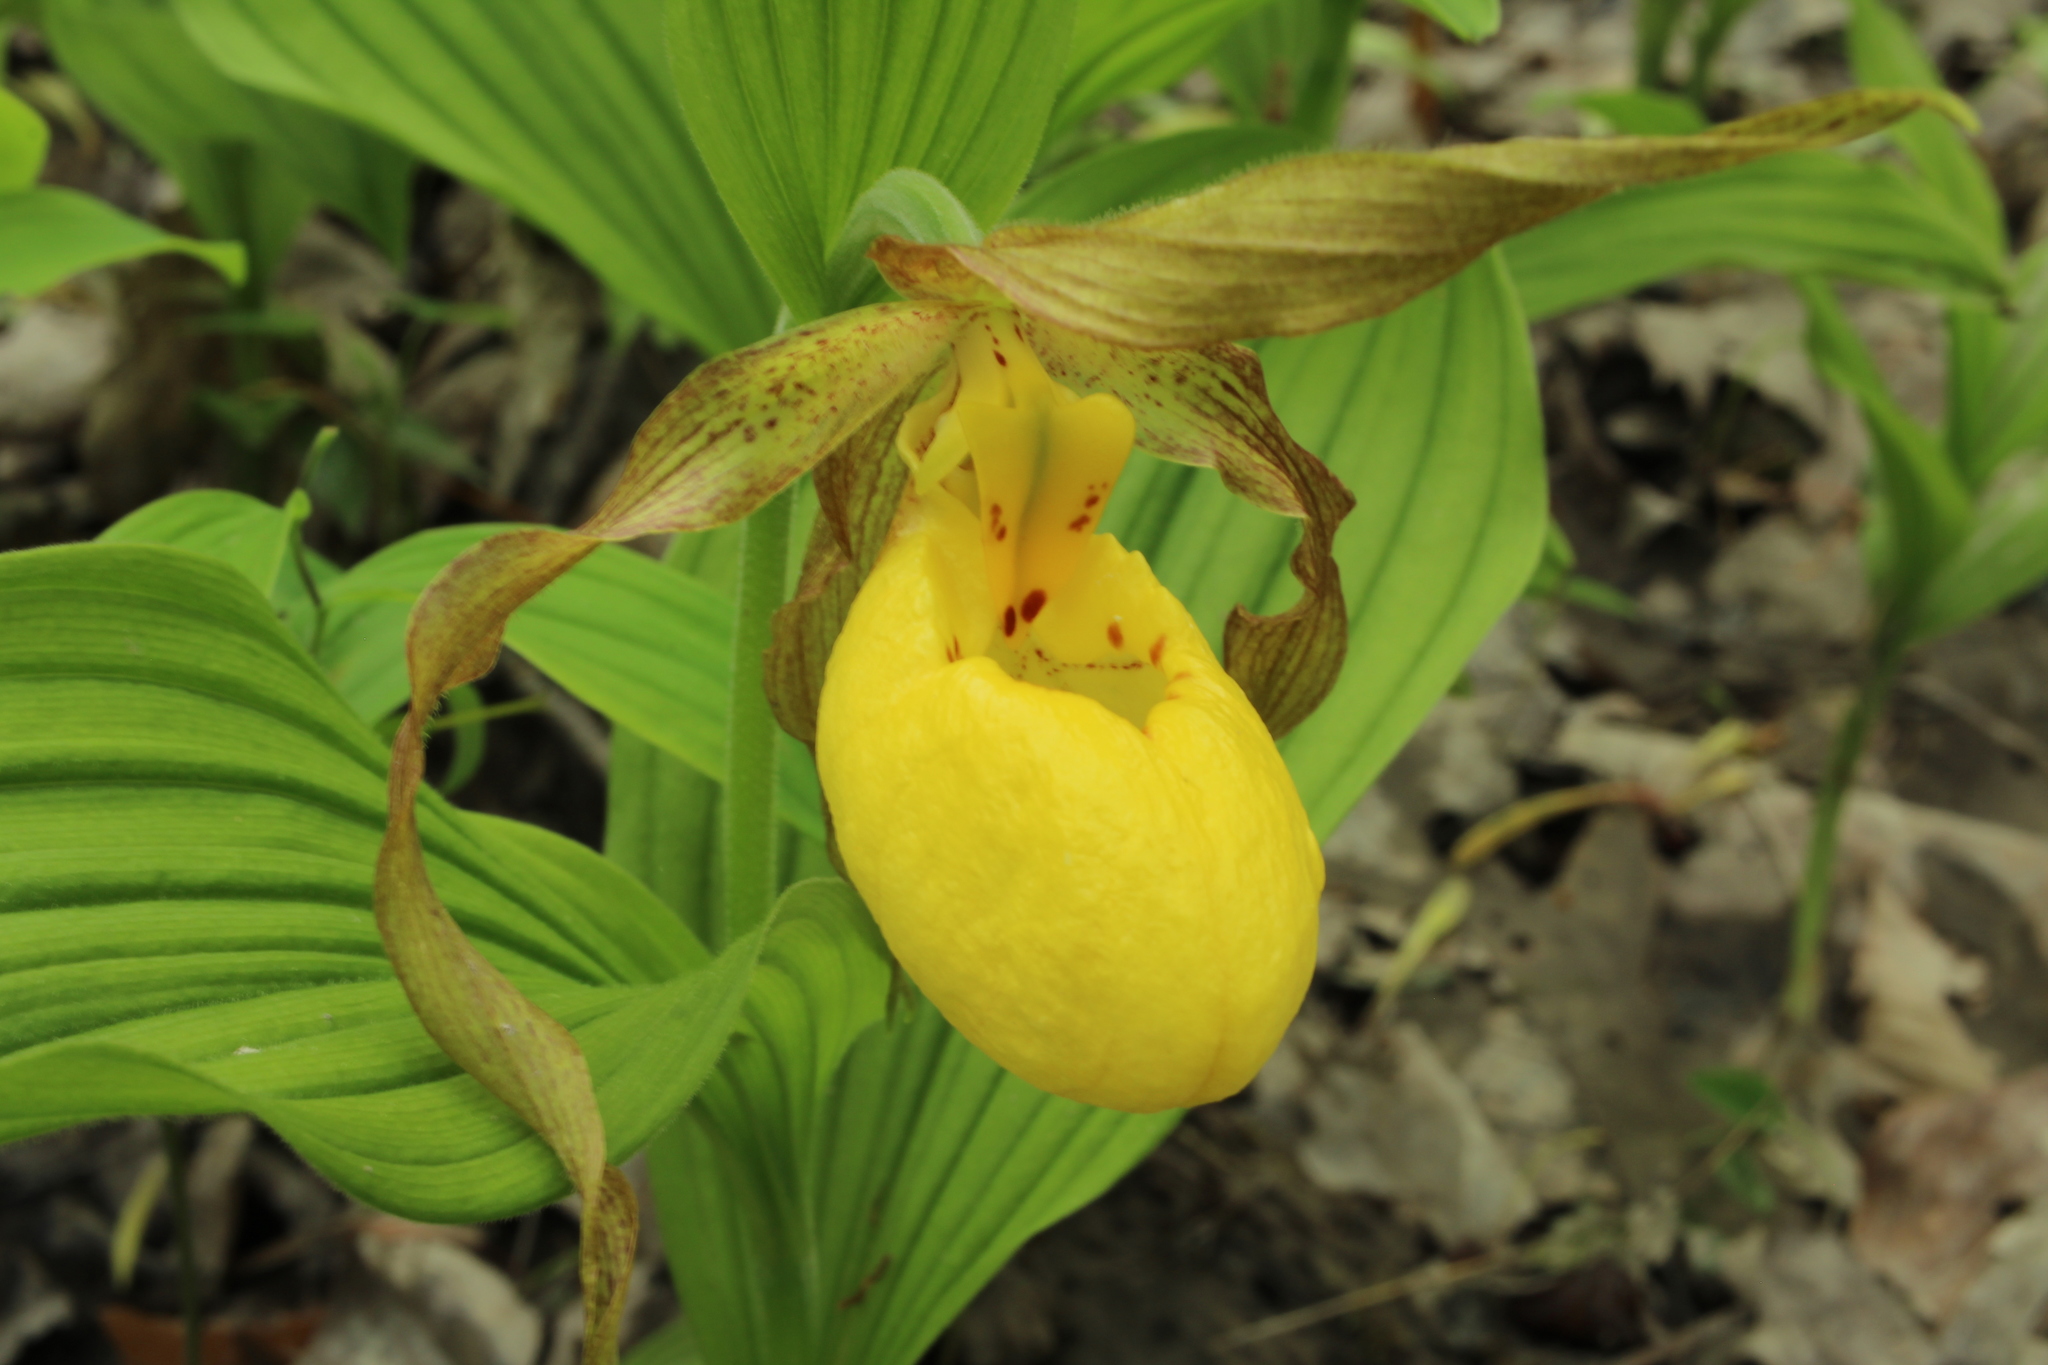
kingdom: Plantae
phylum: Tracheophyta
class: Liliopsida
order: Asparagales
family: Orchidaceae
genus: Cypripedium
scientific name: Cypripedium parviflorum
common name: American yellow lady's-slipper
